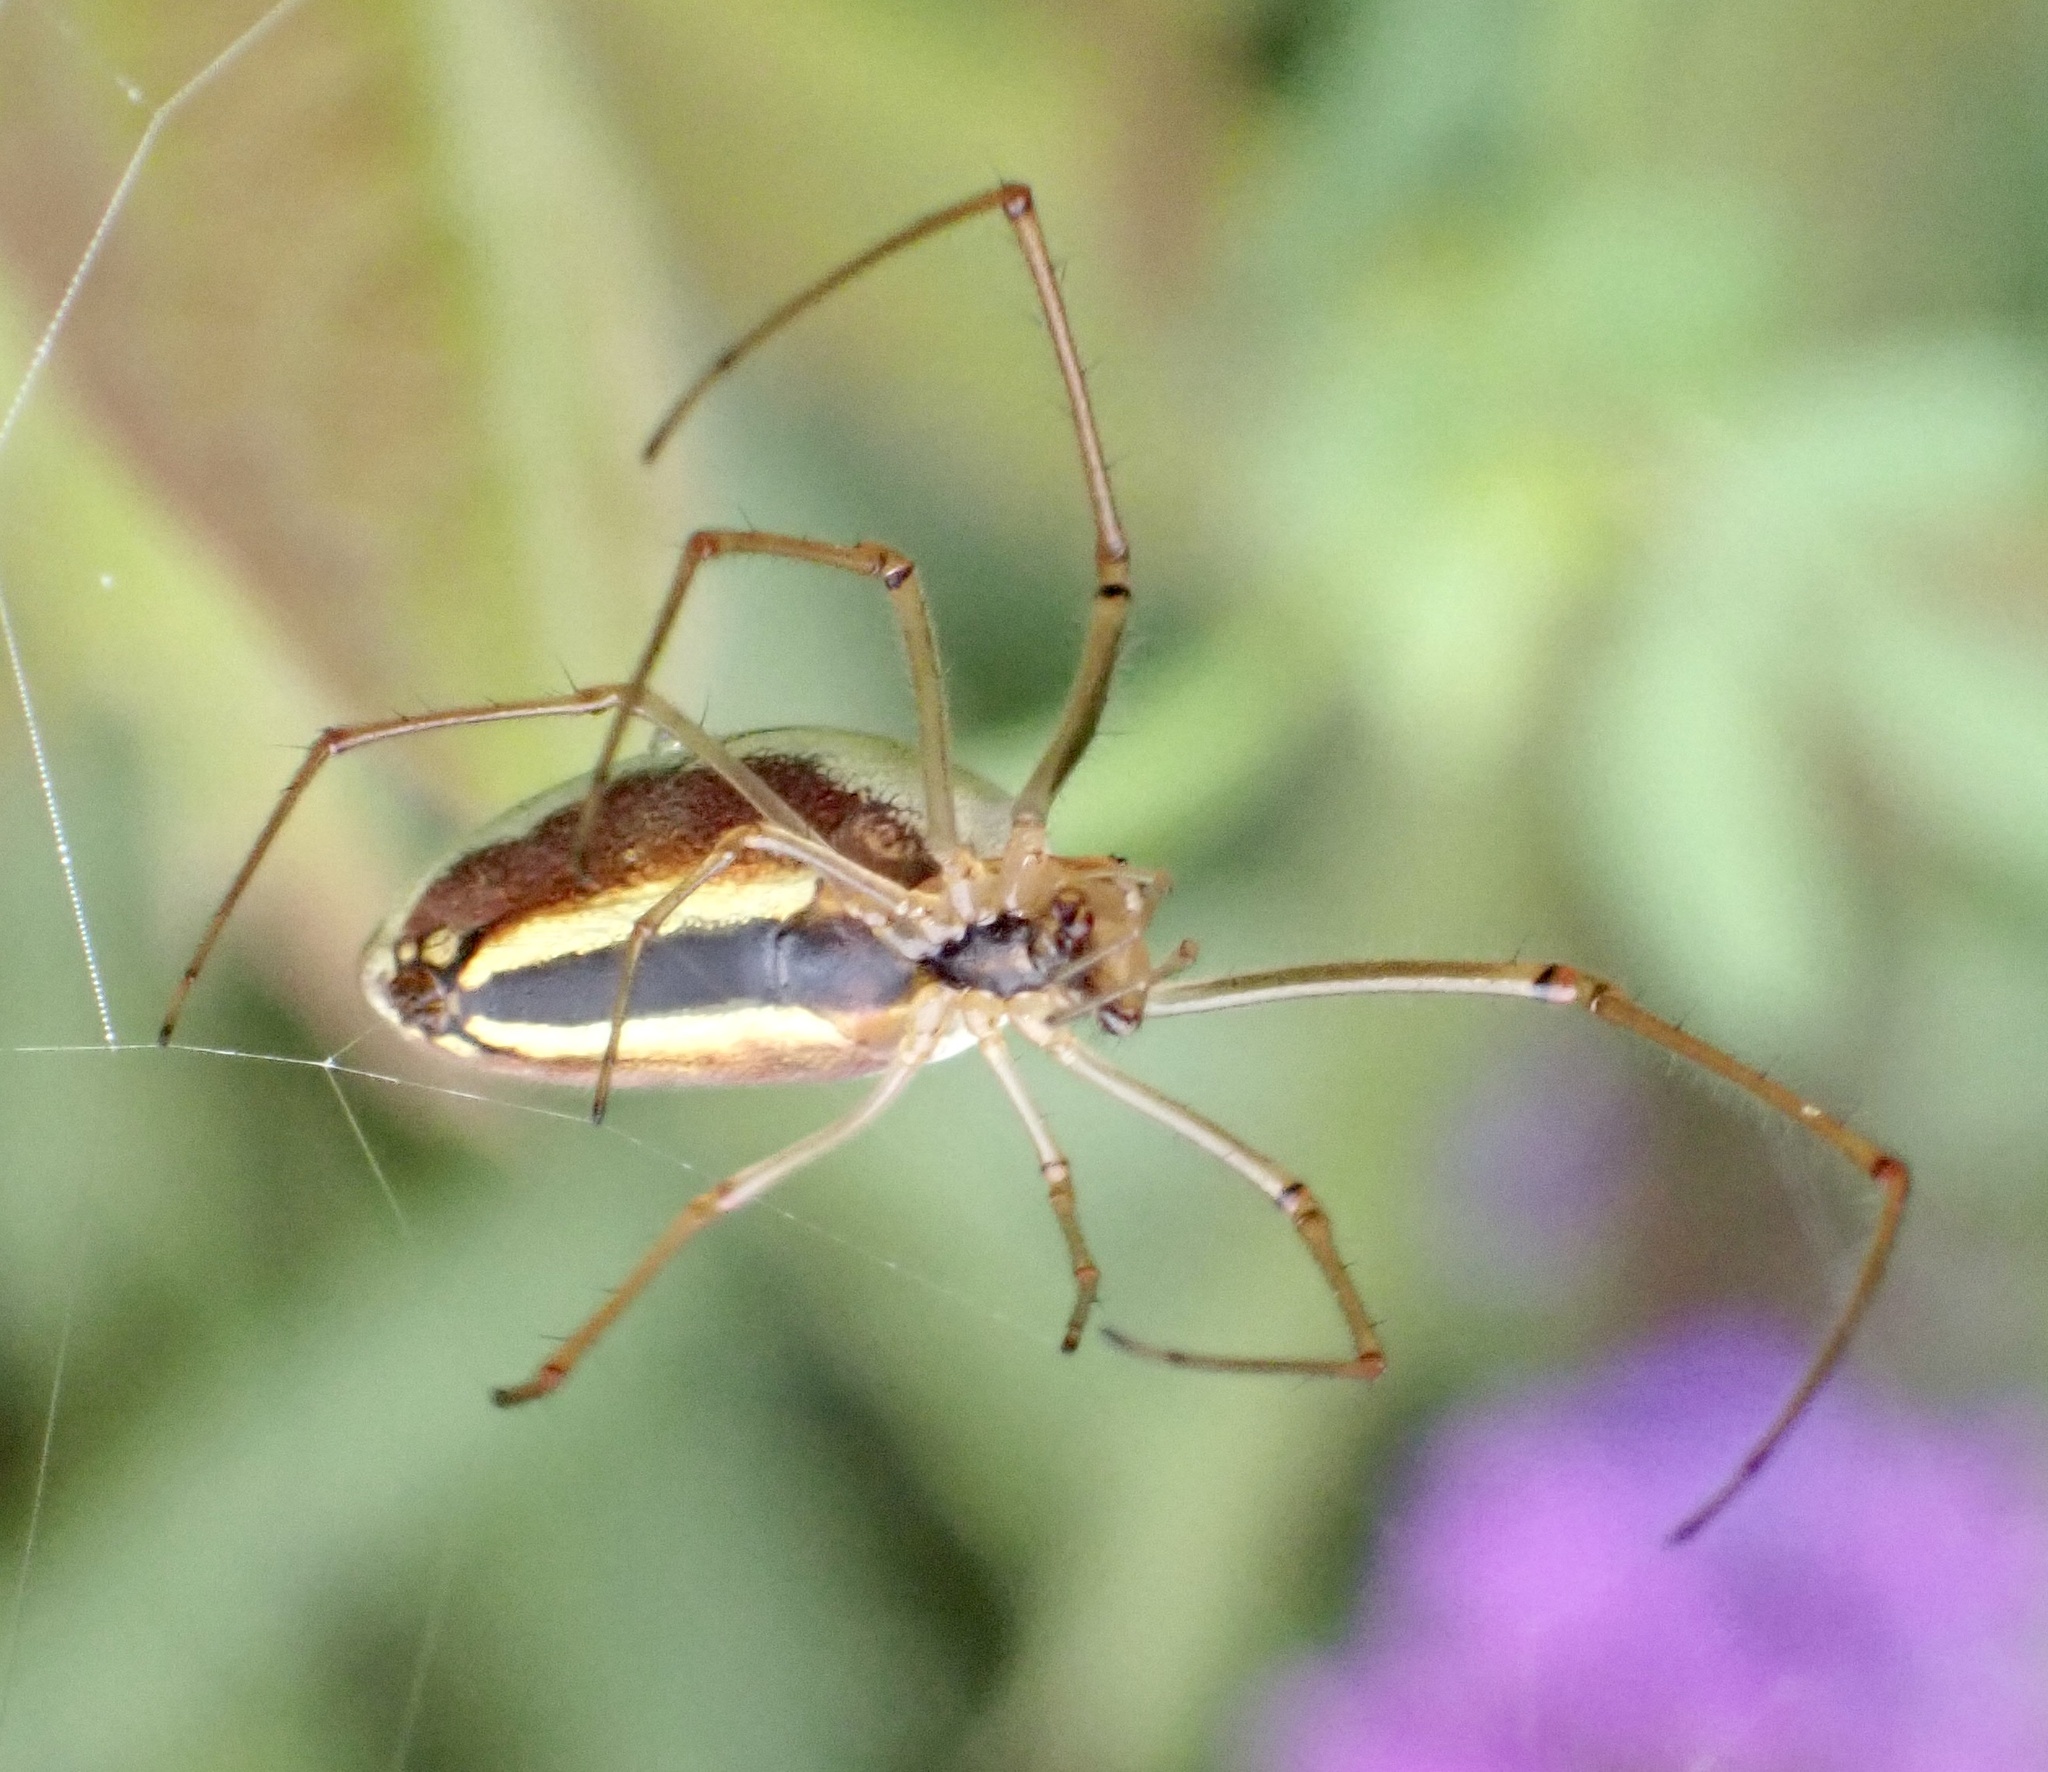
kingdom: Animalia
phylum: Arthropoda
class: Arachnida
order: Araneae
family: Tetragnathidae
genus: Tetragnatha
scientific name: Tetragnatha extensa
